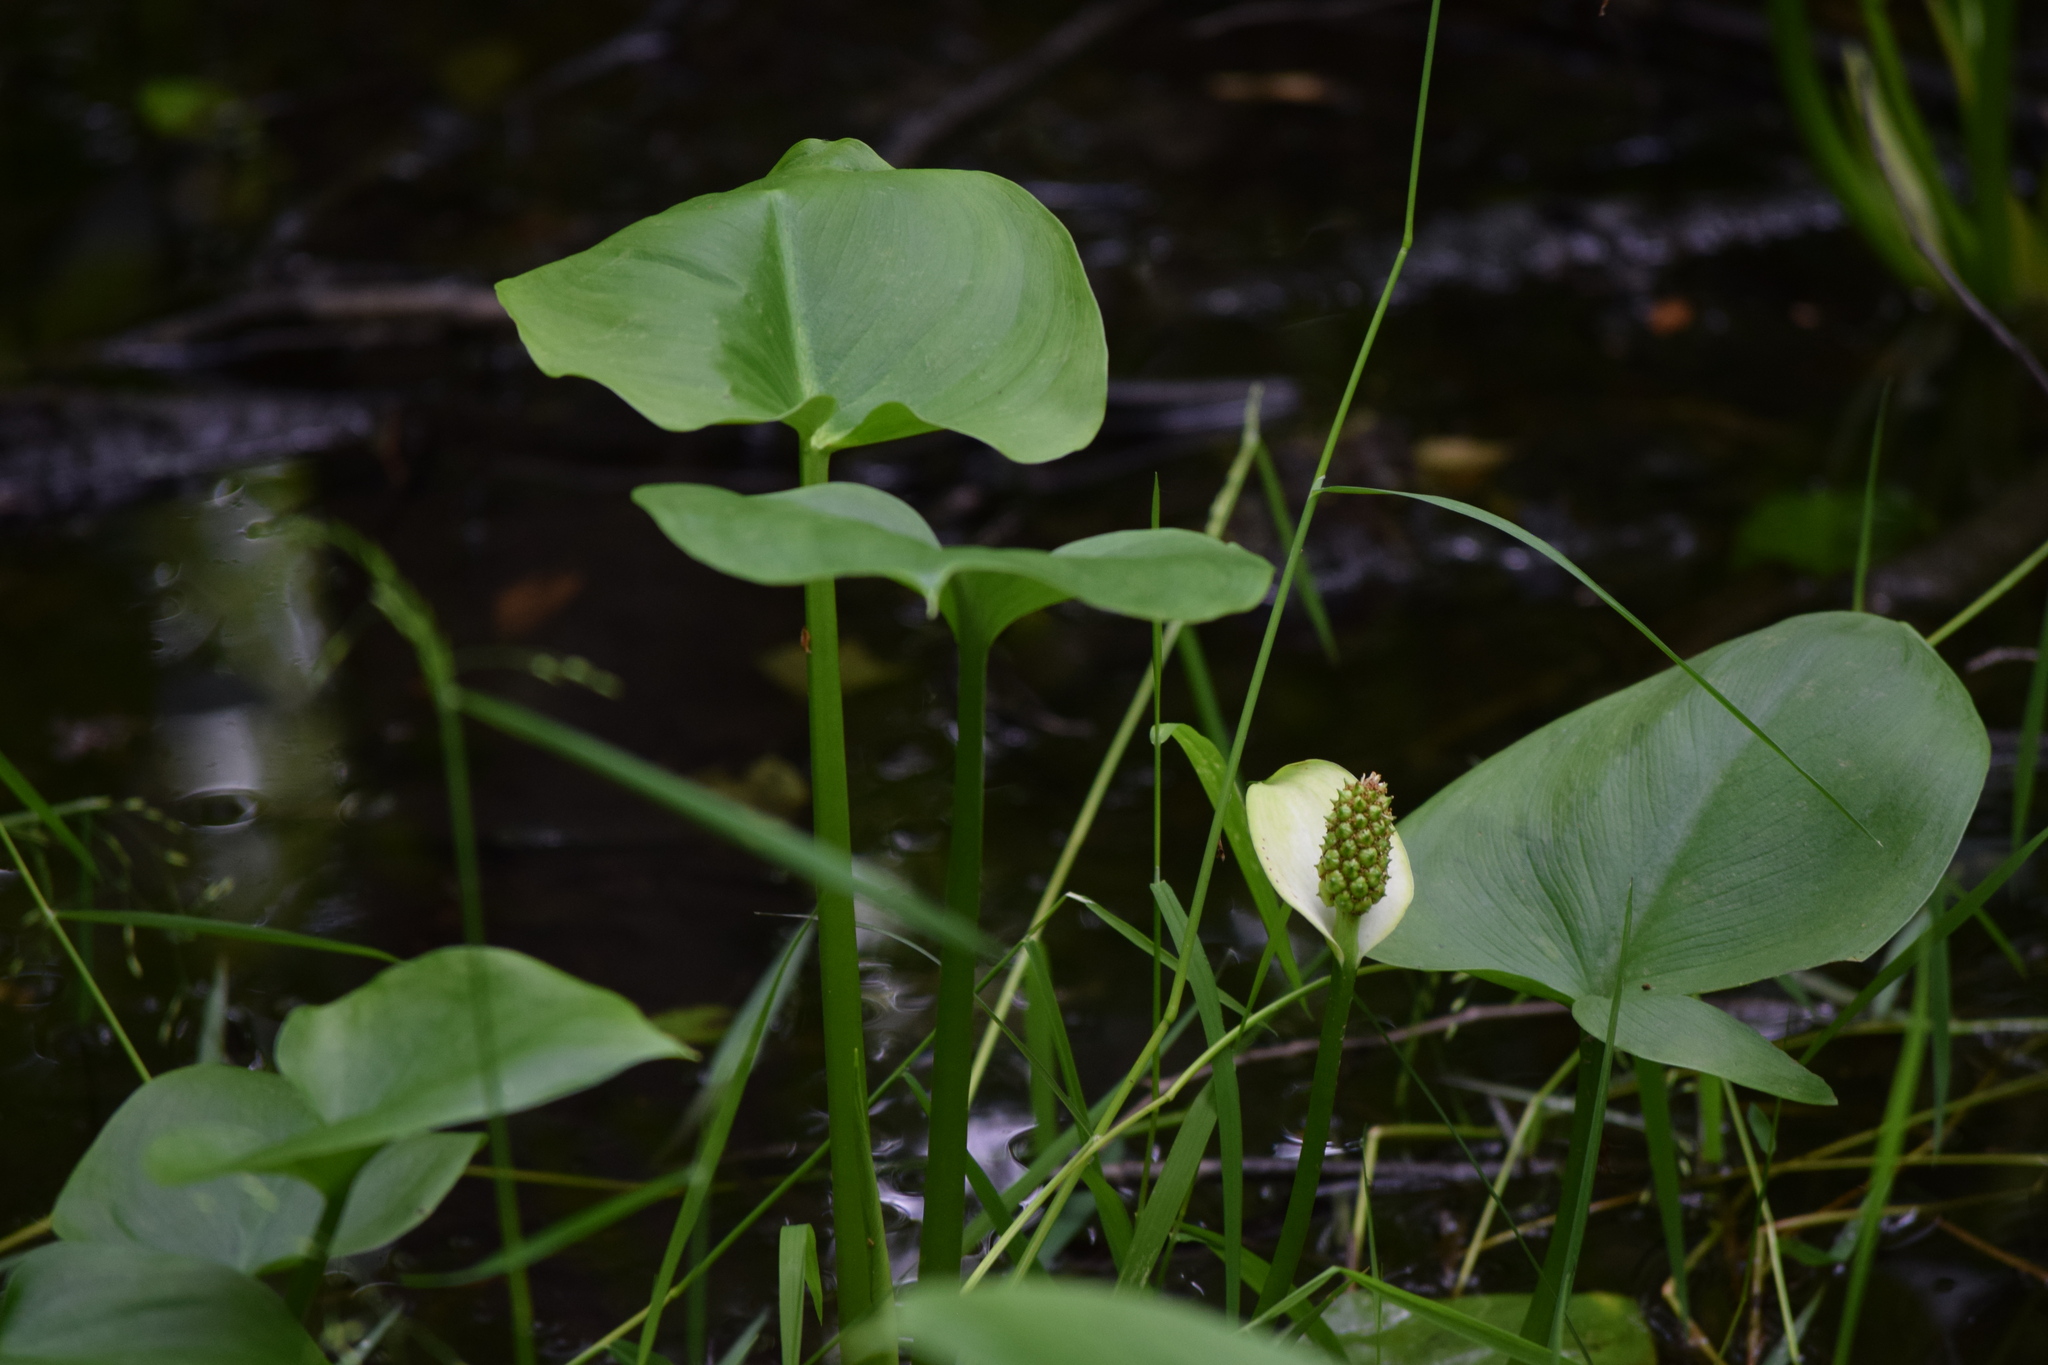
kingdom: Plantae
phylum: Tracheophyta
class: Liliopsida
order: Alismatales
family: Araceae
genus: Calla
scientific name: Calla palustris
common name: Bog arum
